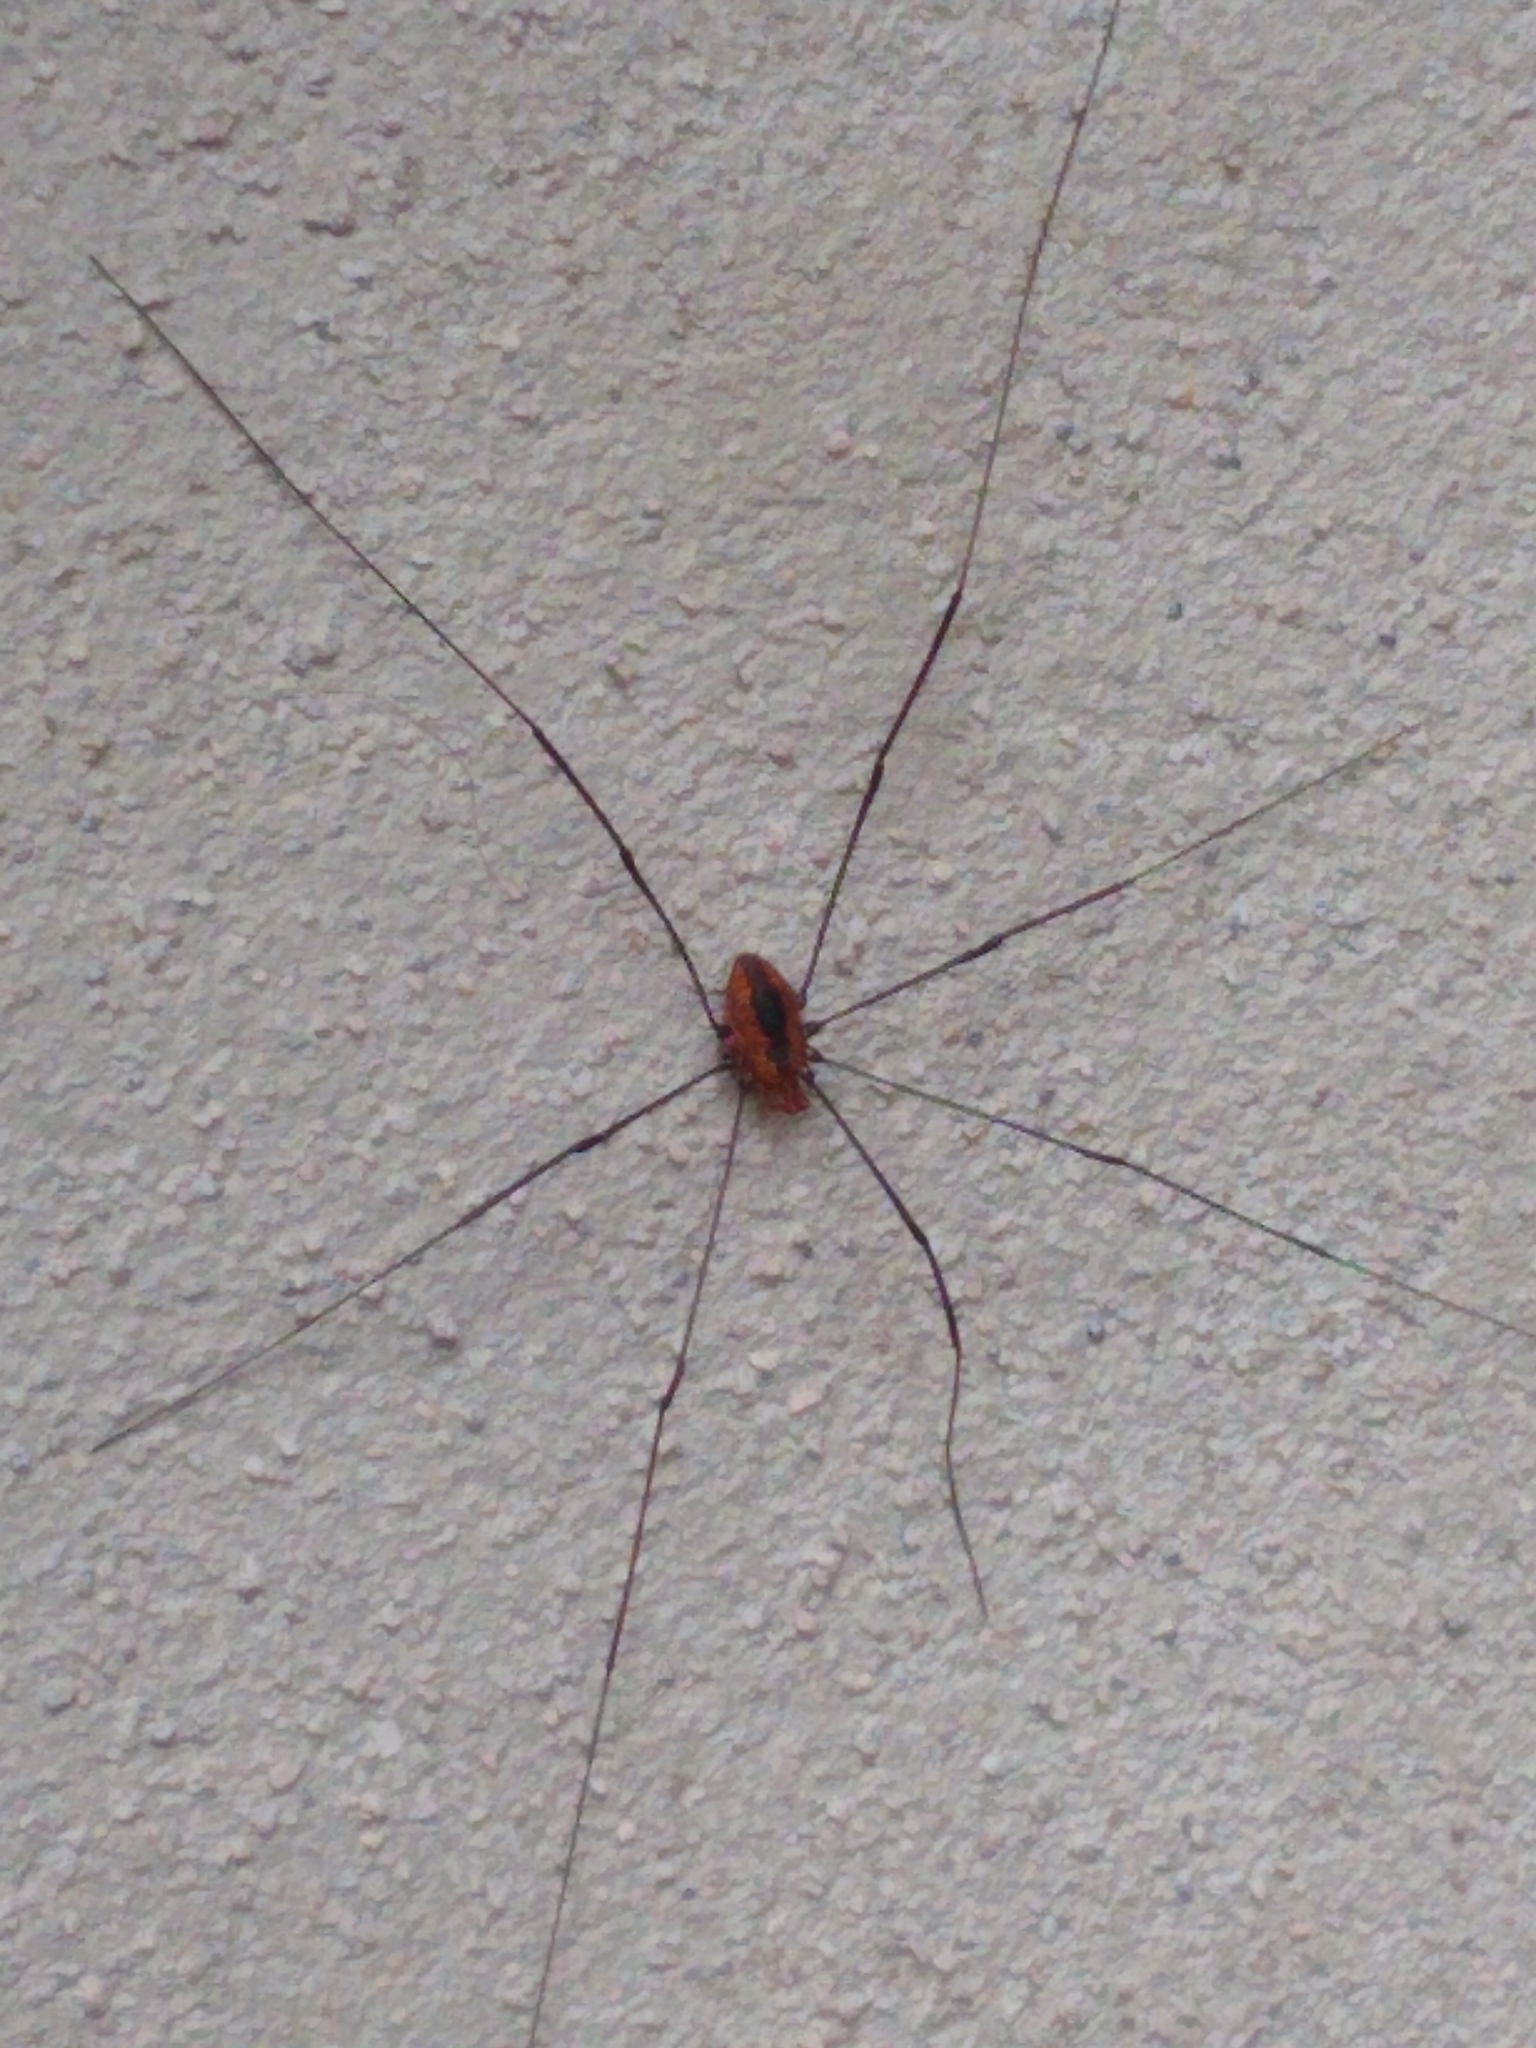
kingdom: Animalia
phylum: Arthropoda
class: Arachnida
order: Opiliones
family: Sclerosomatidae
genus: Leiobunum
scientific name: Leiobunum vittatum
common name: Eastern harvestman
